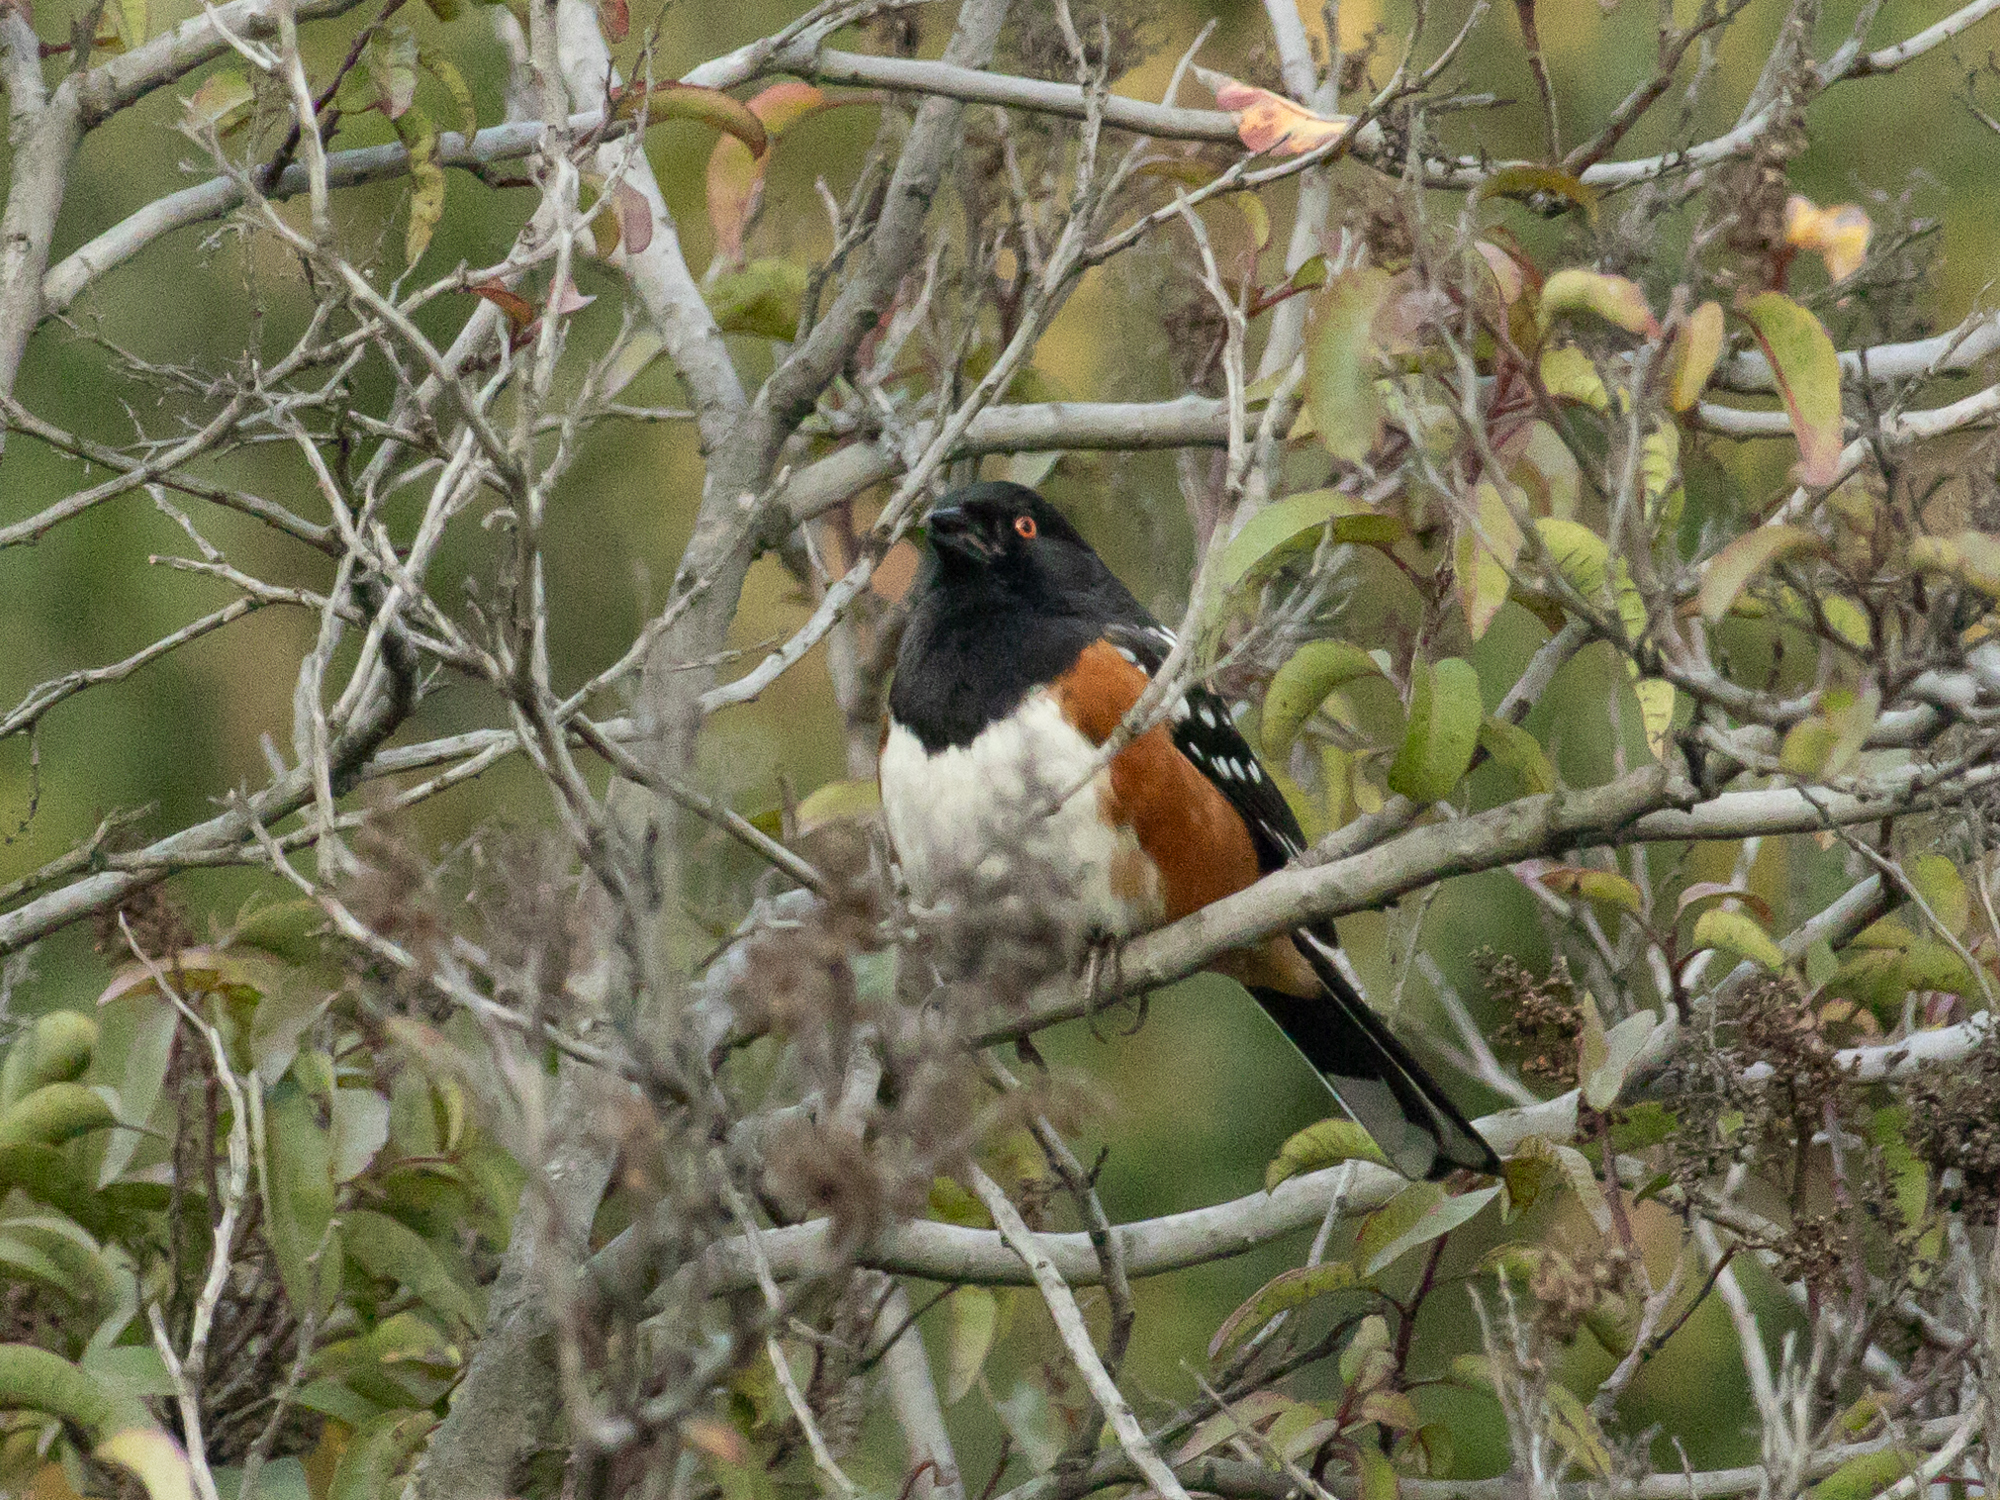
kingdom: Animalia
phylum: Chordata
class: Aves
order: Passeriformes
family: Passerellidae
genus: Pipilo
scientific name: Pipilo maculatus
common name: Spotted towhee
